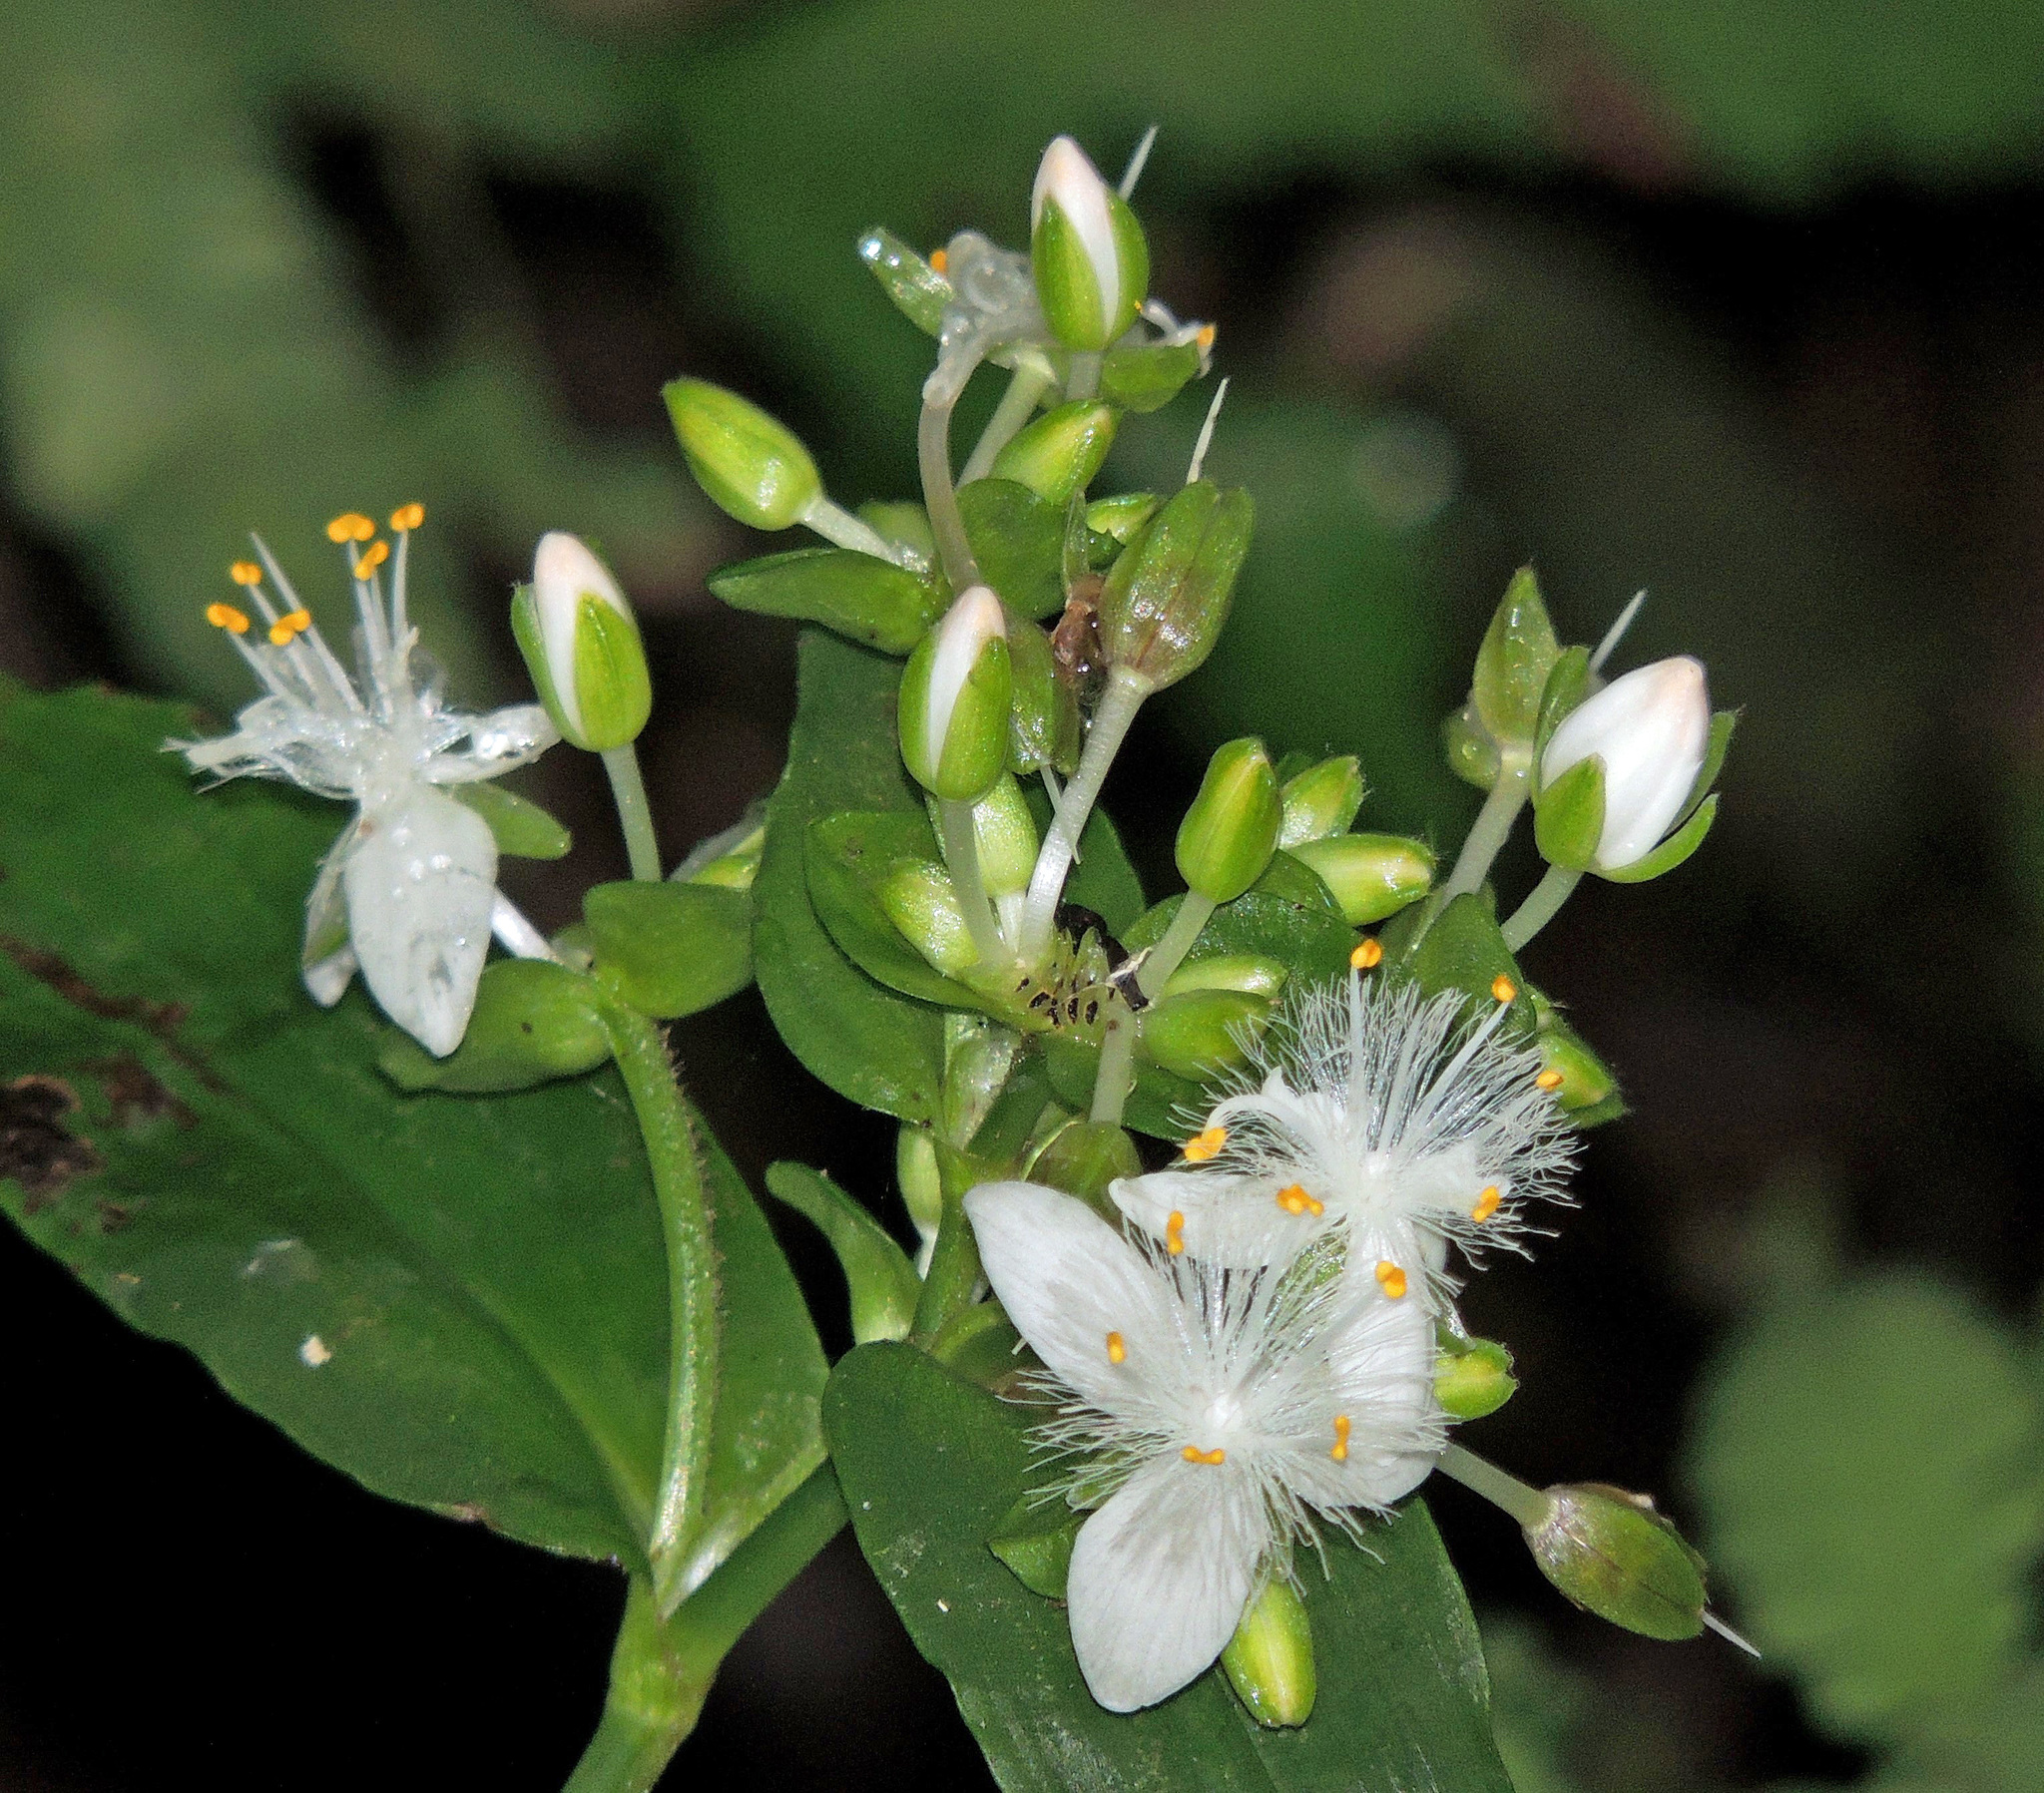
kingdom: Plantae
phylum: Tracheophyta
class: Liliopsida
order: Commelinales
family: Commelinaceae
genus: Tradescantia
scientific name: Tradescantia fluminensis
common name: Wandering-jew
